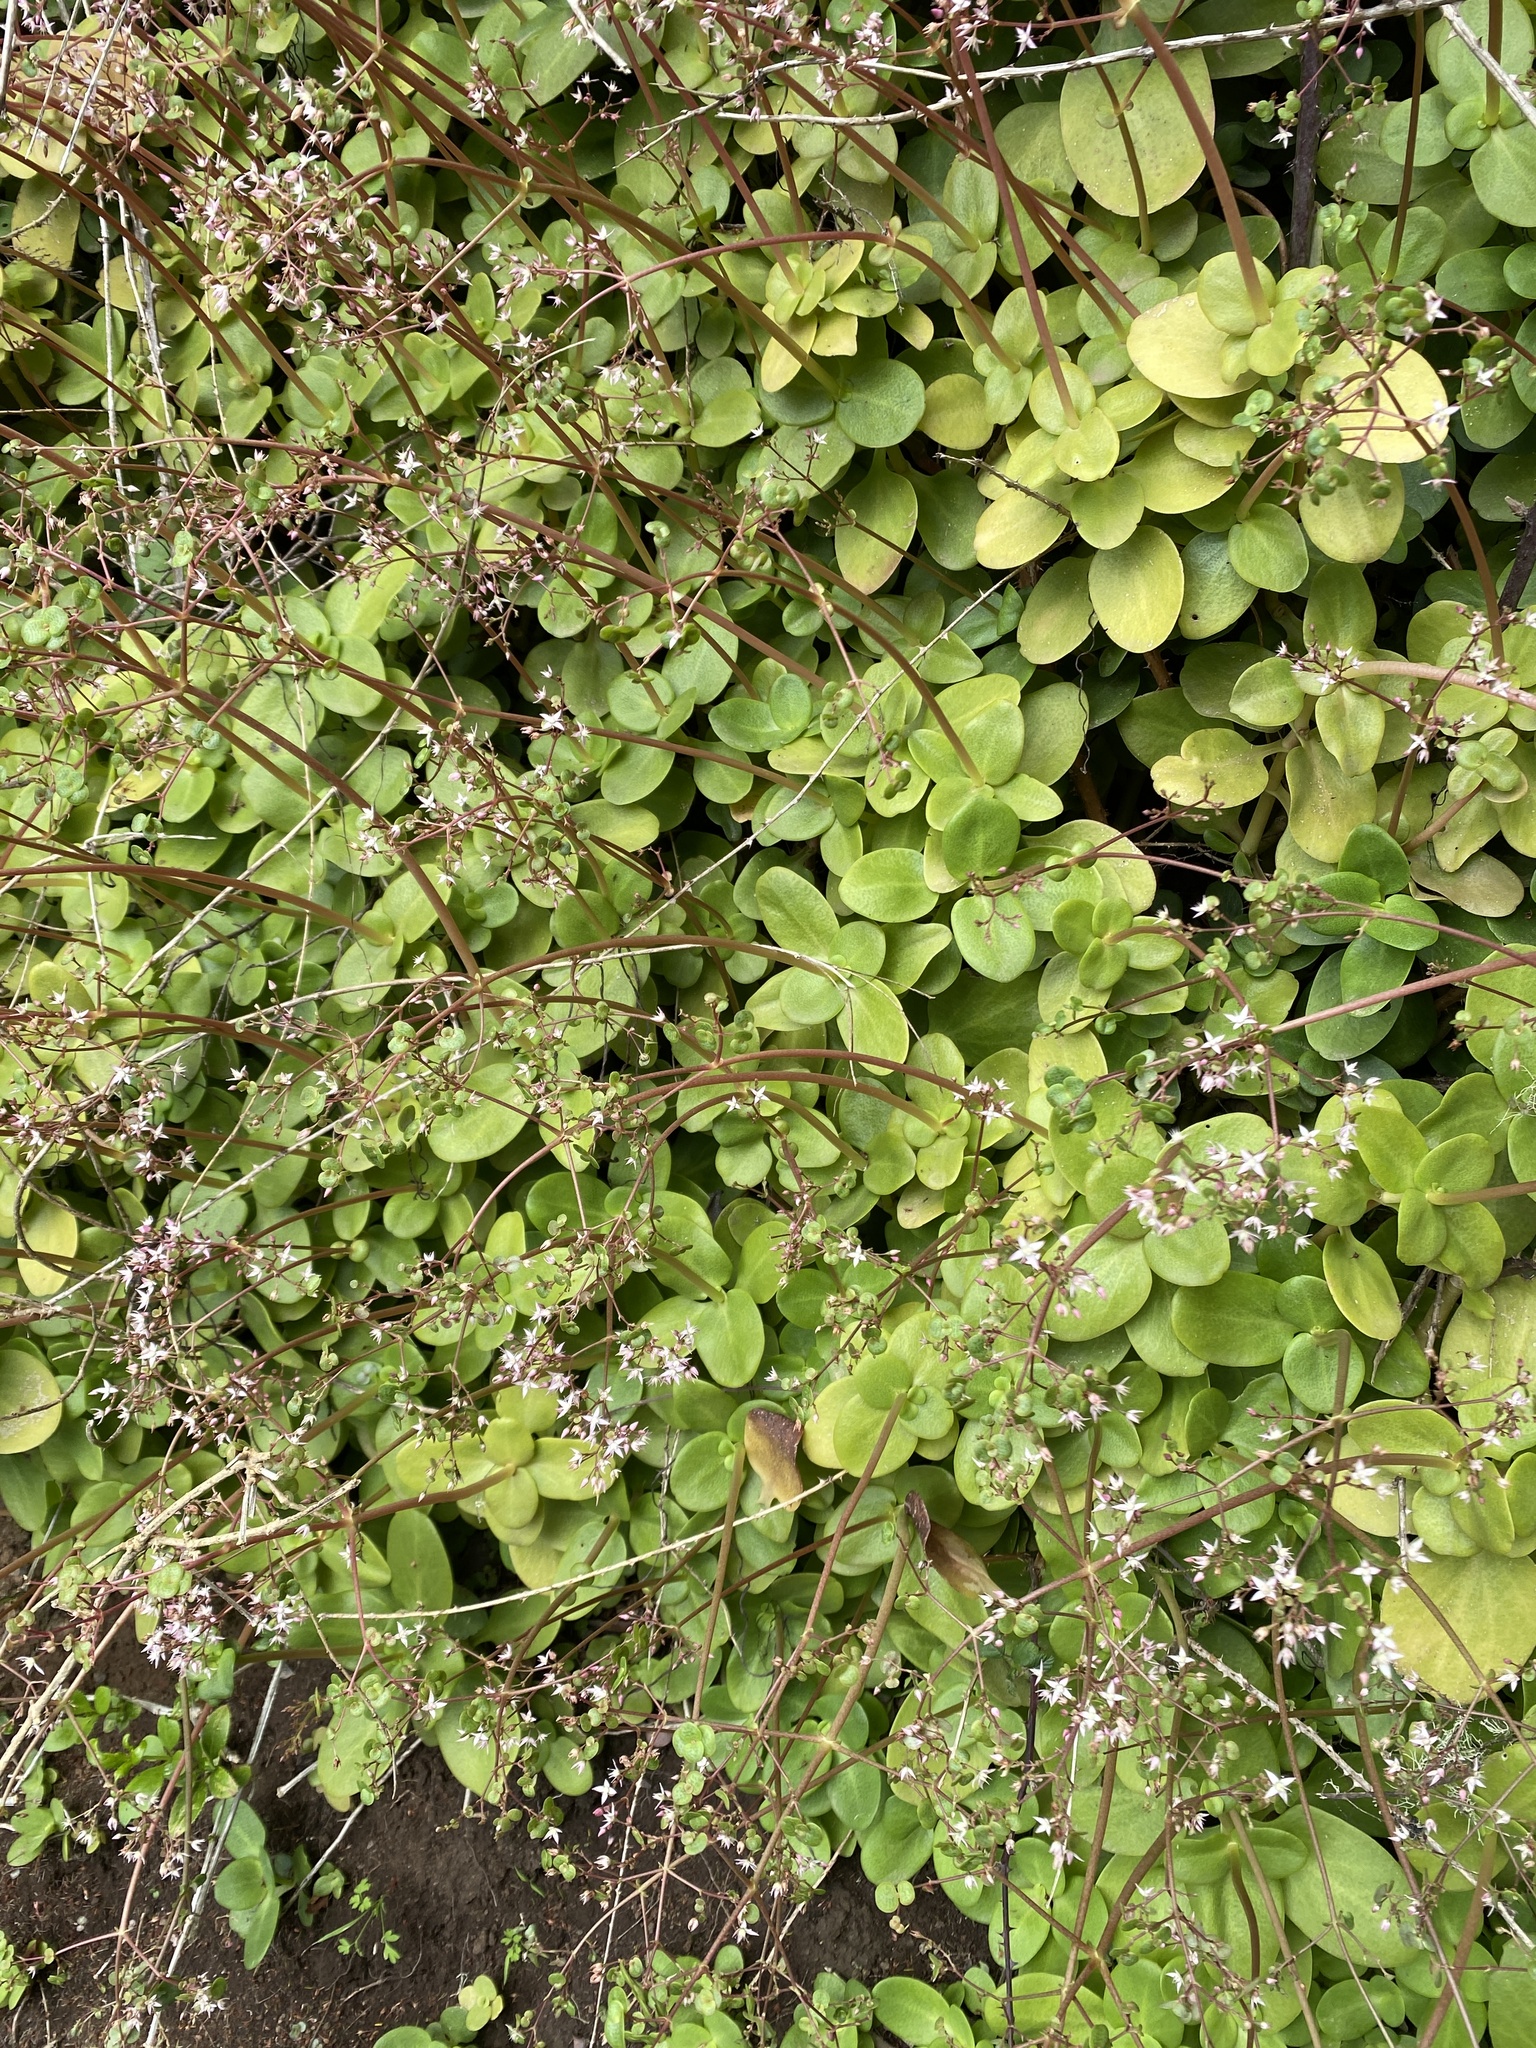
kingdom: Plantae
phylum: Tracheophyta
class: Magnoliopsida
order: Saxifragales
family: Crassulaceae
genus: Crassula
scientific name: Crassula multicava
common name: Cape province pygmyweed
